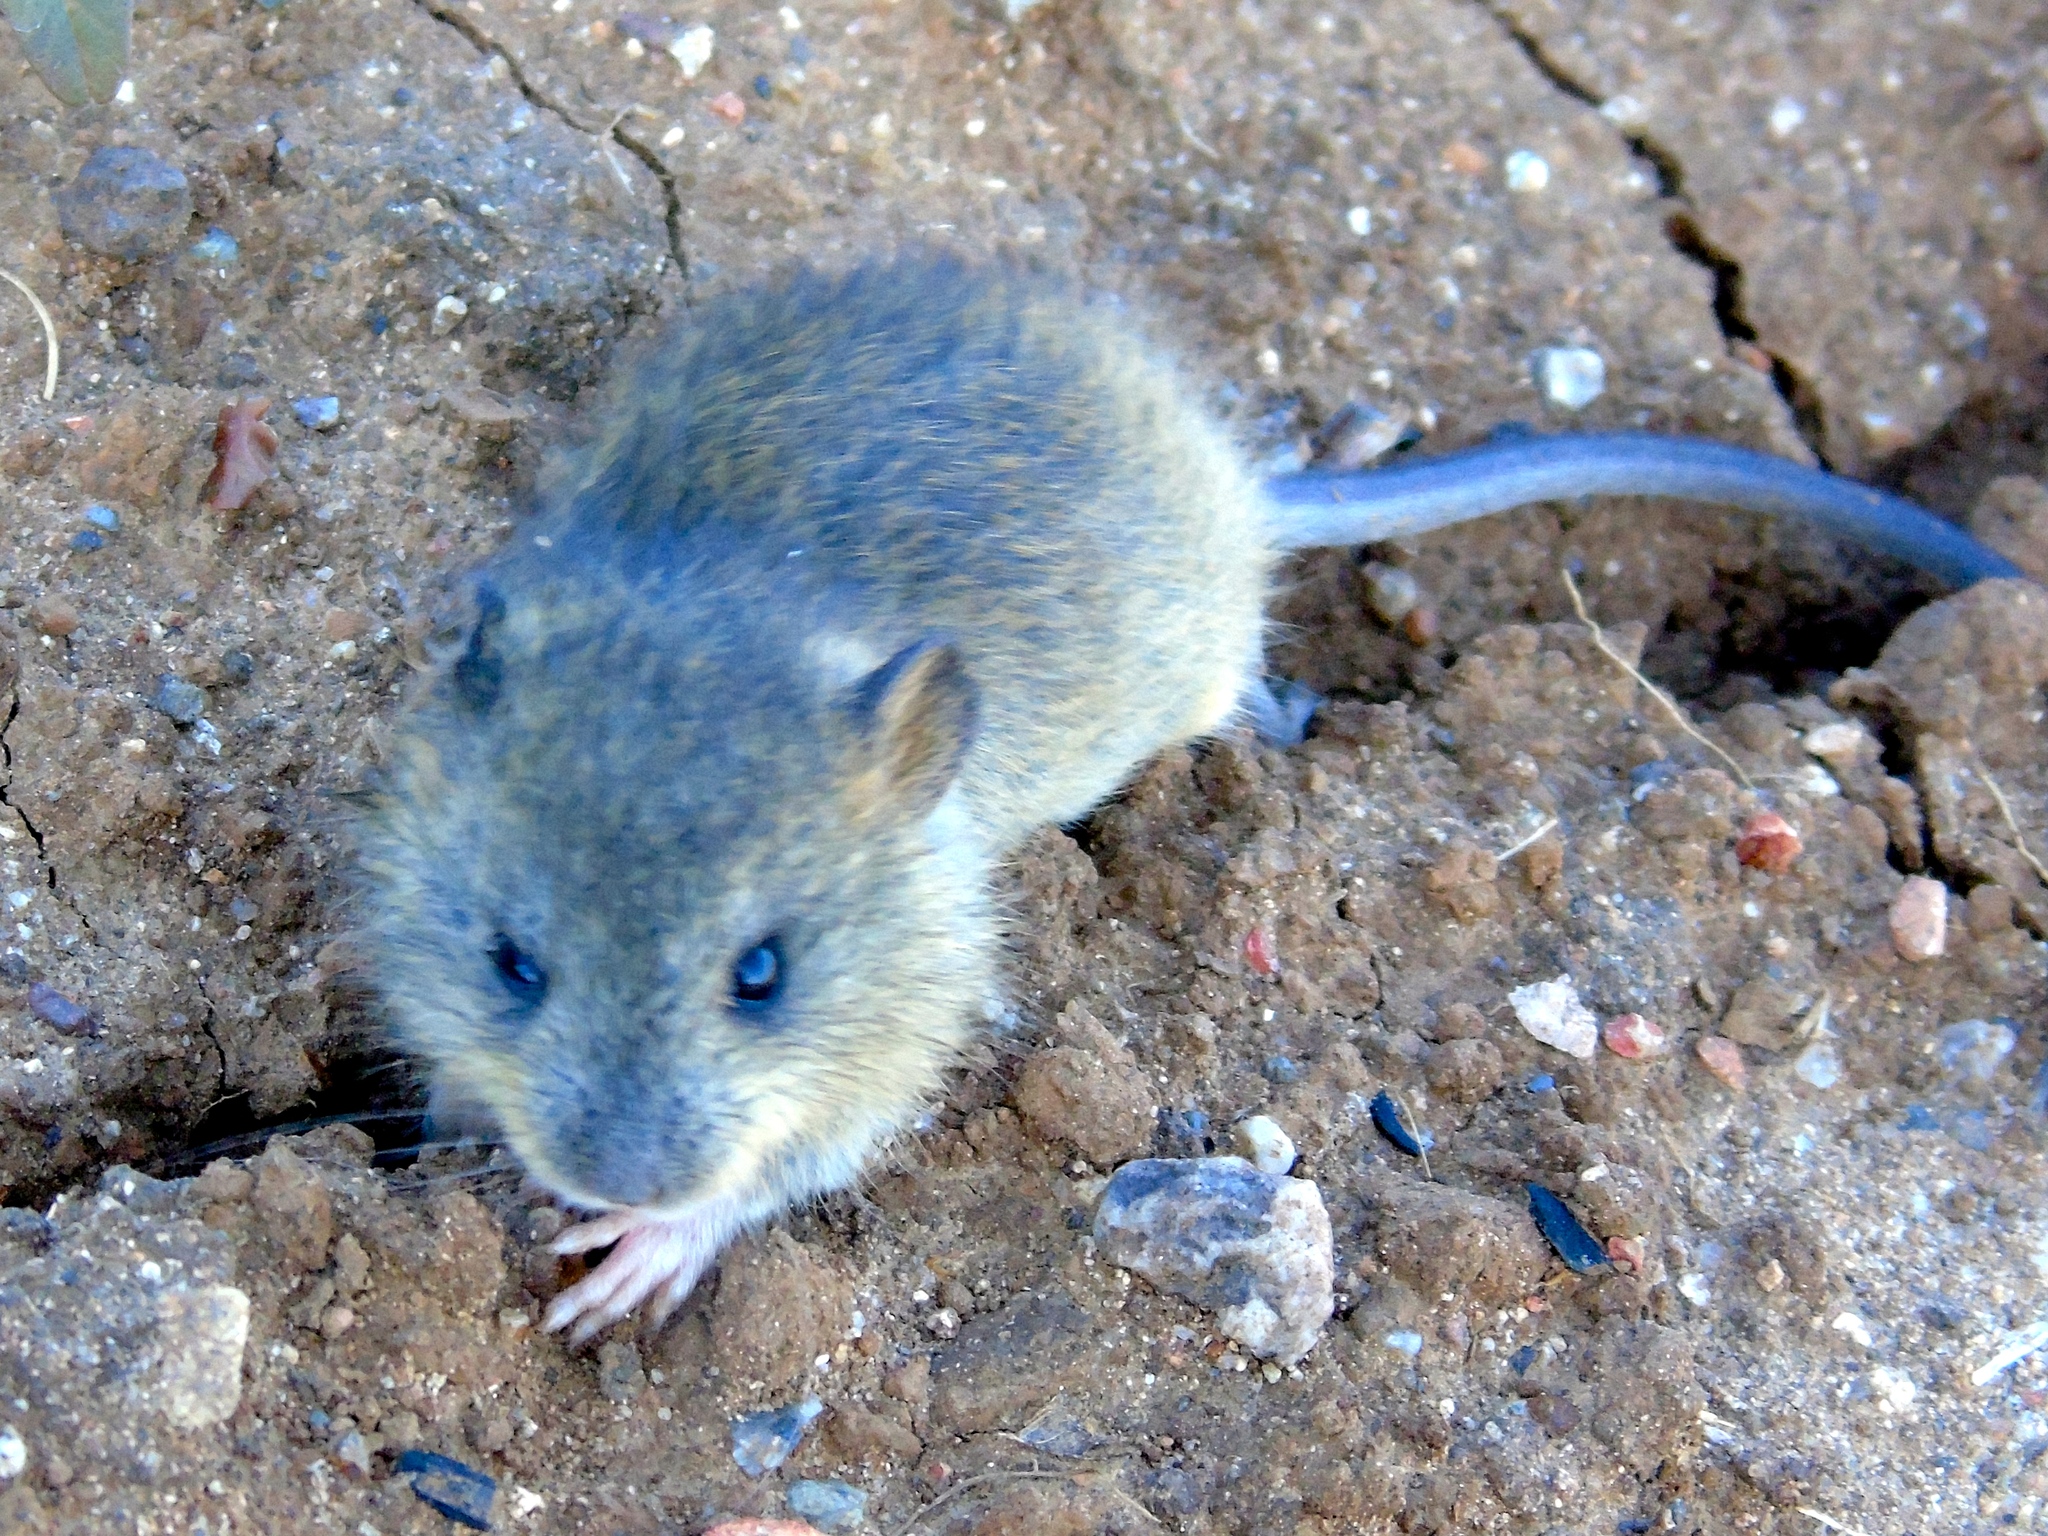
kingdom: Animalia
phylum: Chordata
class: Mammalia
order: Rodentia
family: Cricetidae
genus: Sigmodon
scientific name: Sigmodon arizonae
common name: Arizona cotton rat
